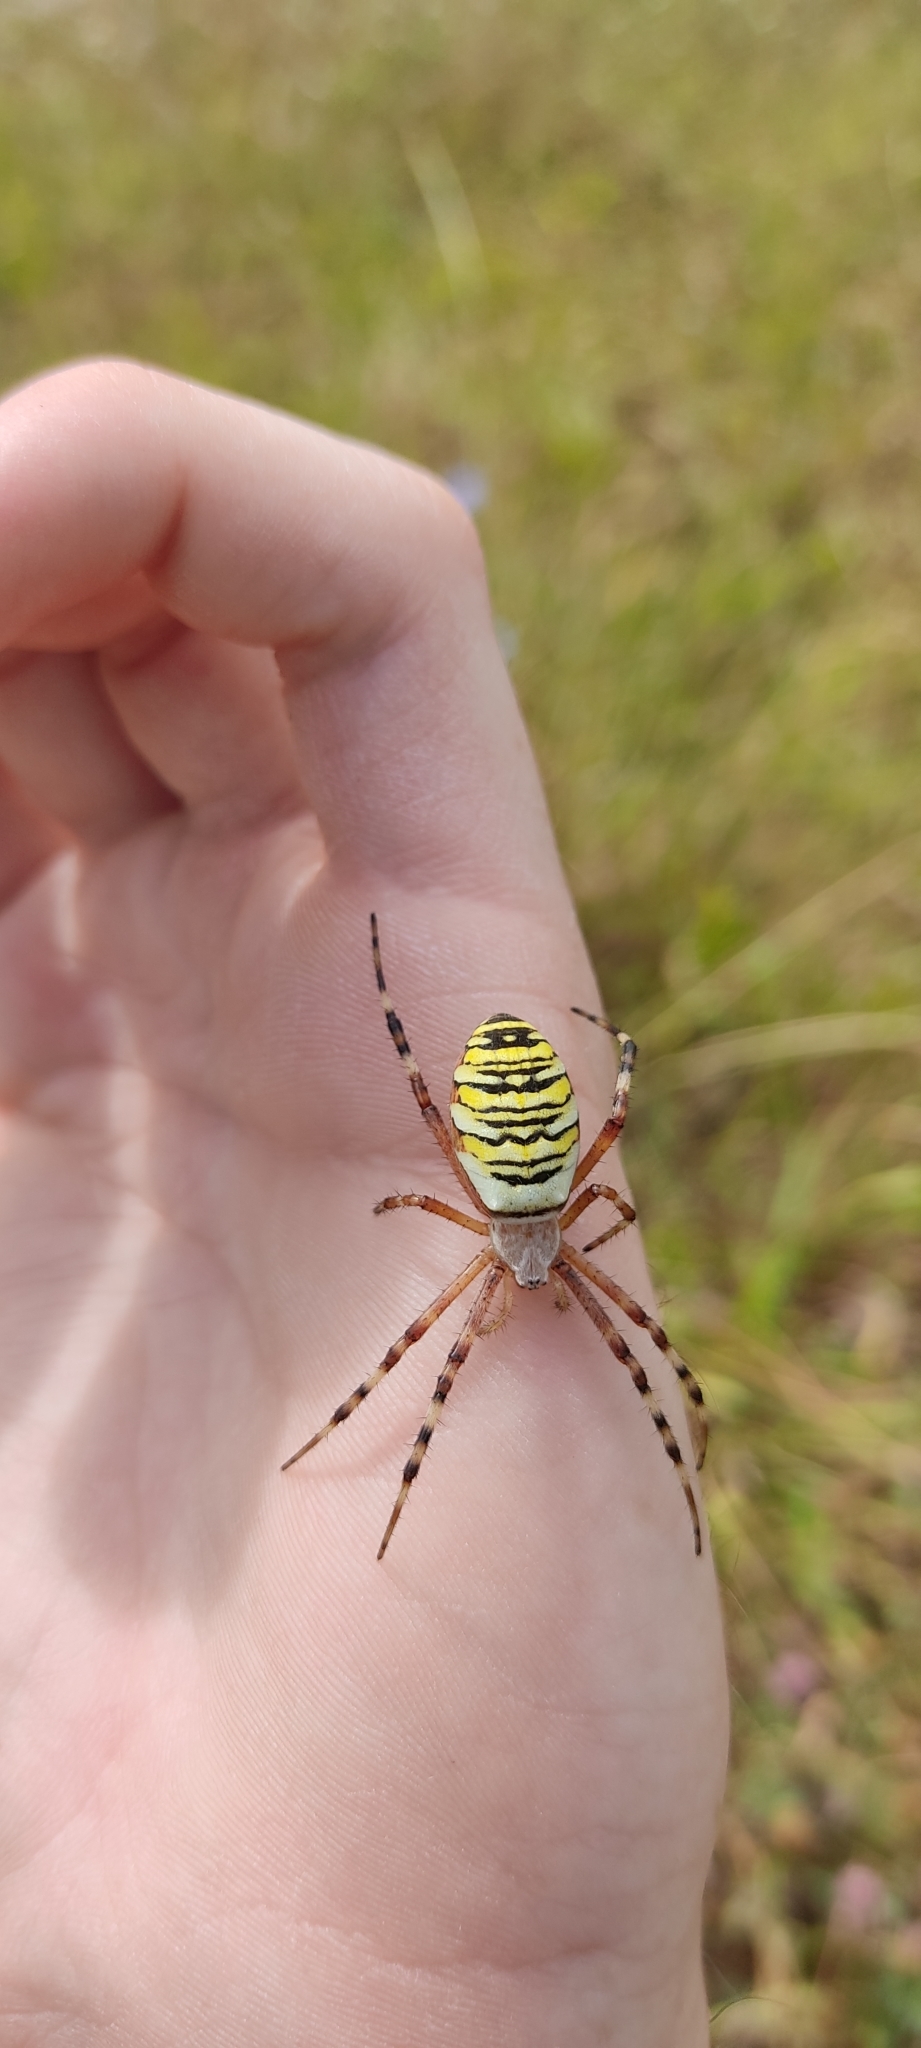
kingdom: Animalia
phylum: Arthropoda
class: Arachnida
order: Araneae
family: Araneidae
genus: Argiope
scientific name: Argiope bruennichi
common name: Wasp spider
